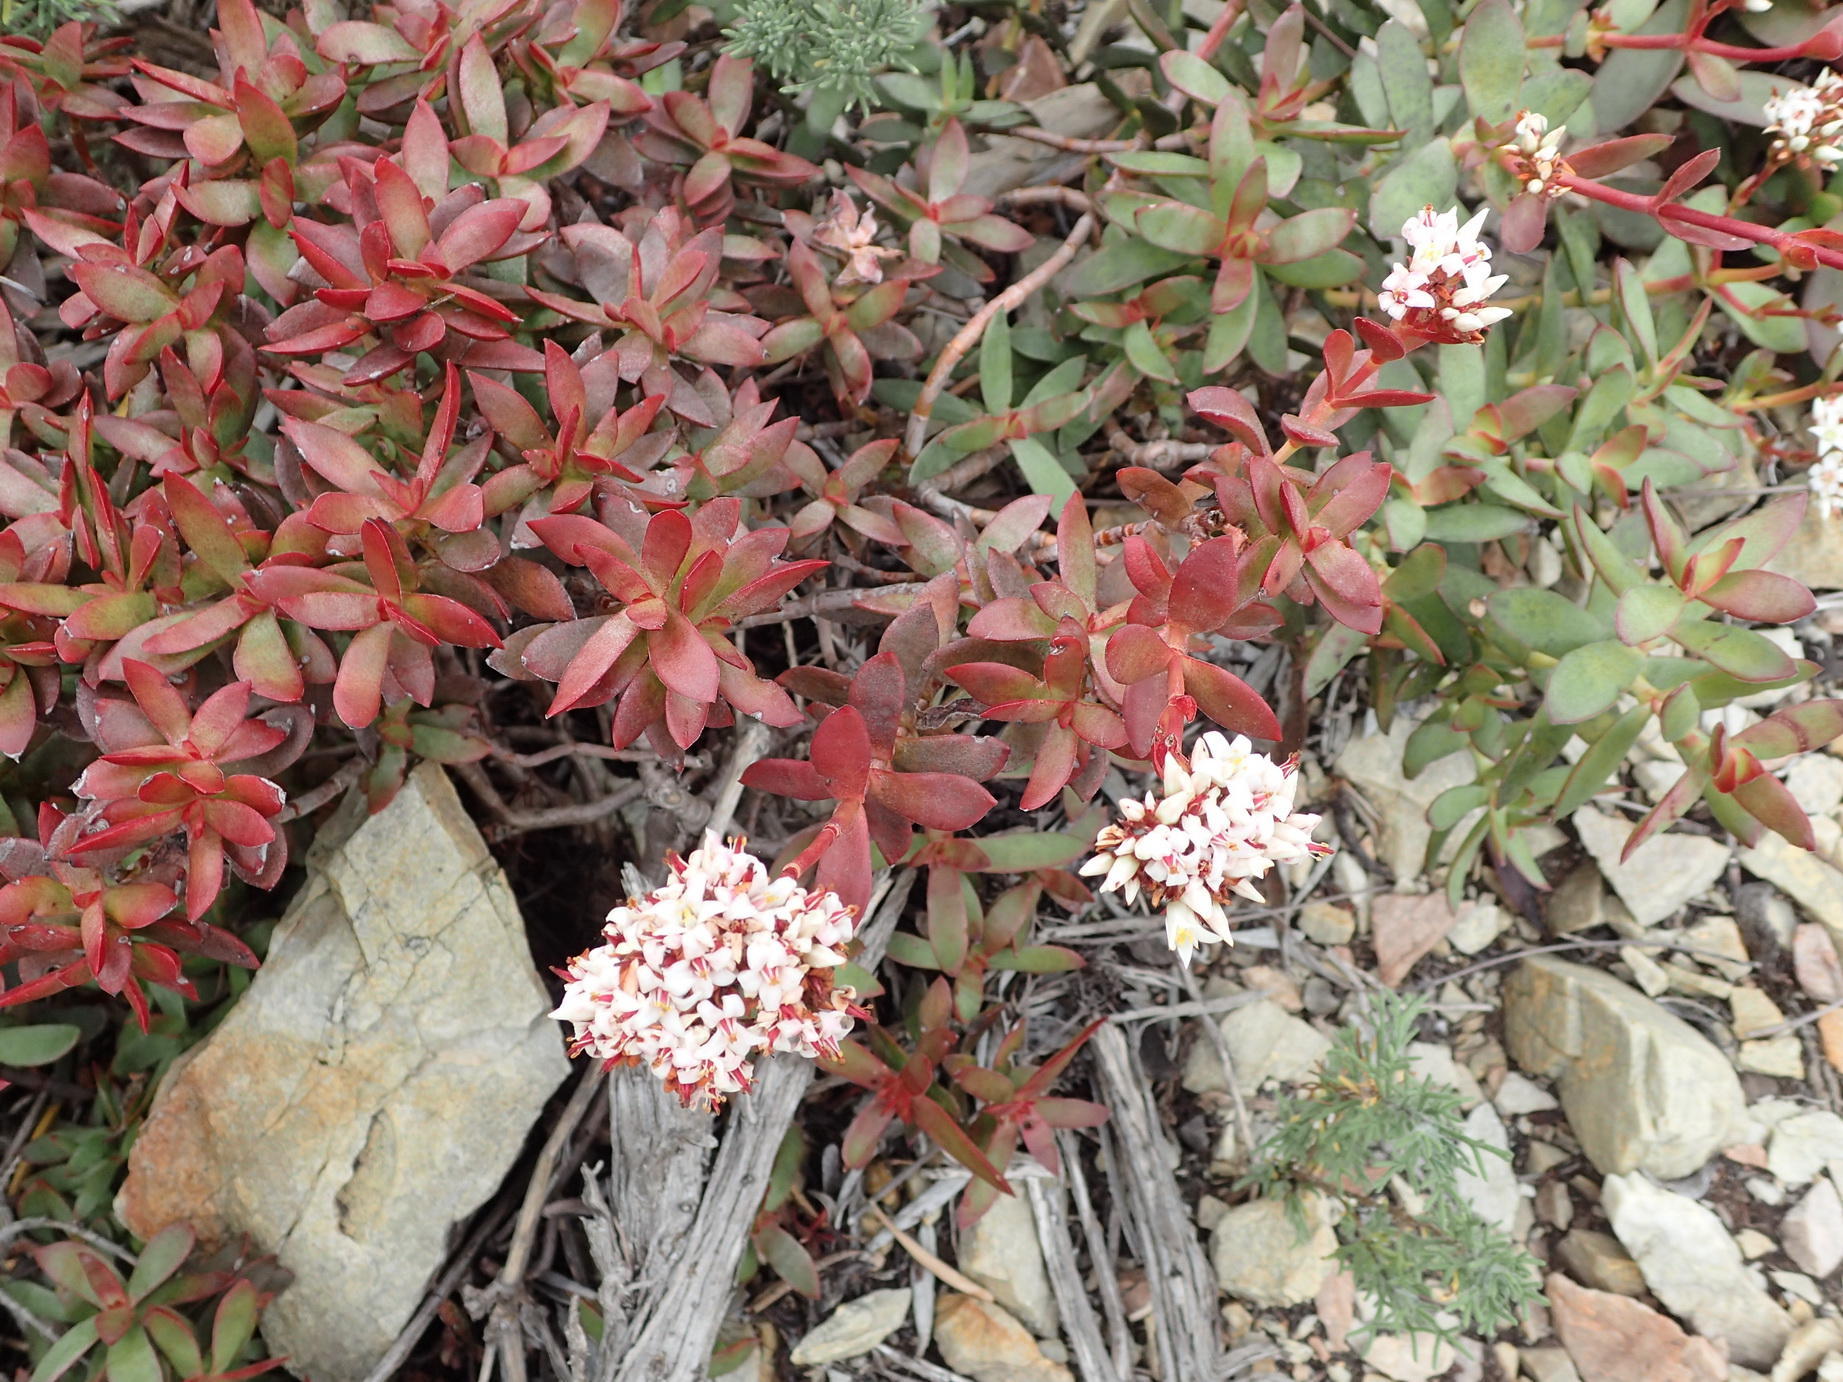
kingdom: Plantae
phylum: Tracheophyta
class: Magnoliopsida
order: Saxifragales
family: Crassulaceae
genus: Crassula
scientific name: Crassula rubricaulis
